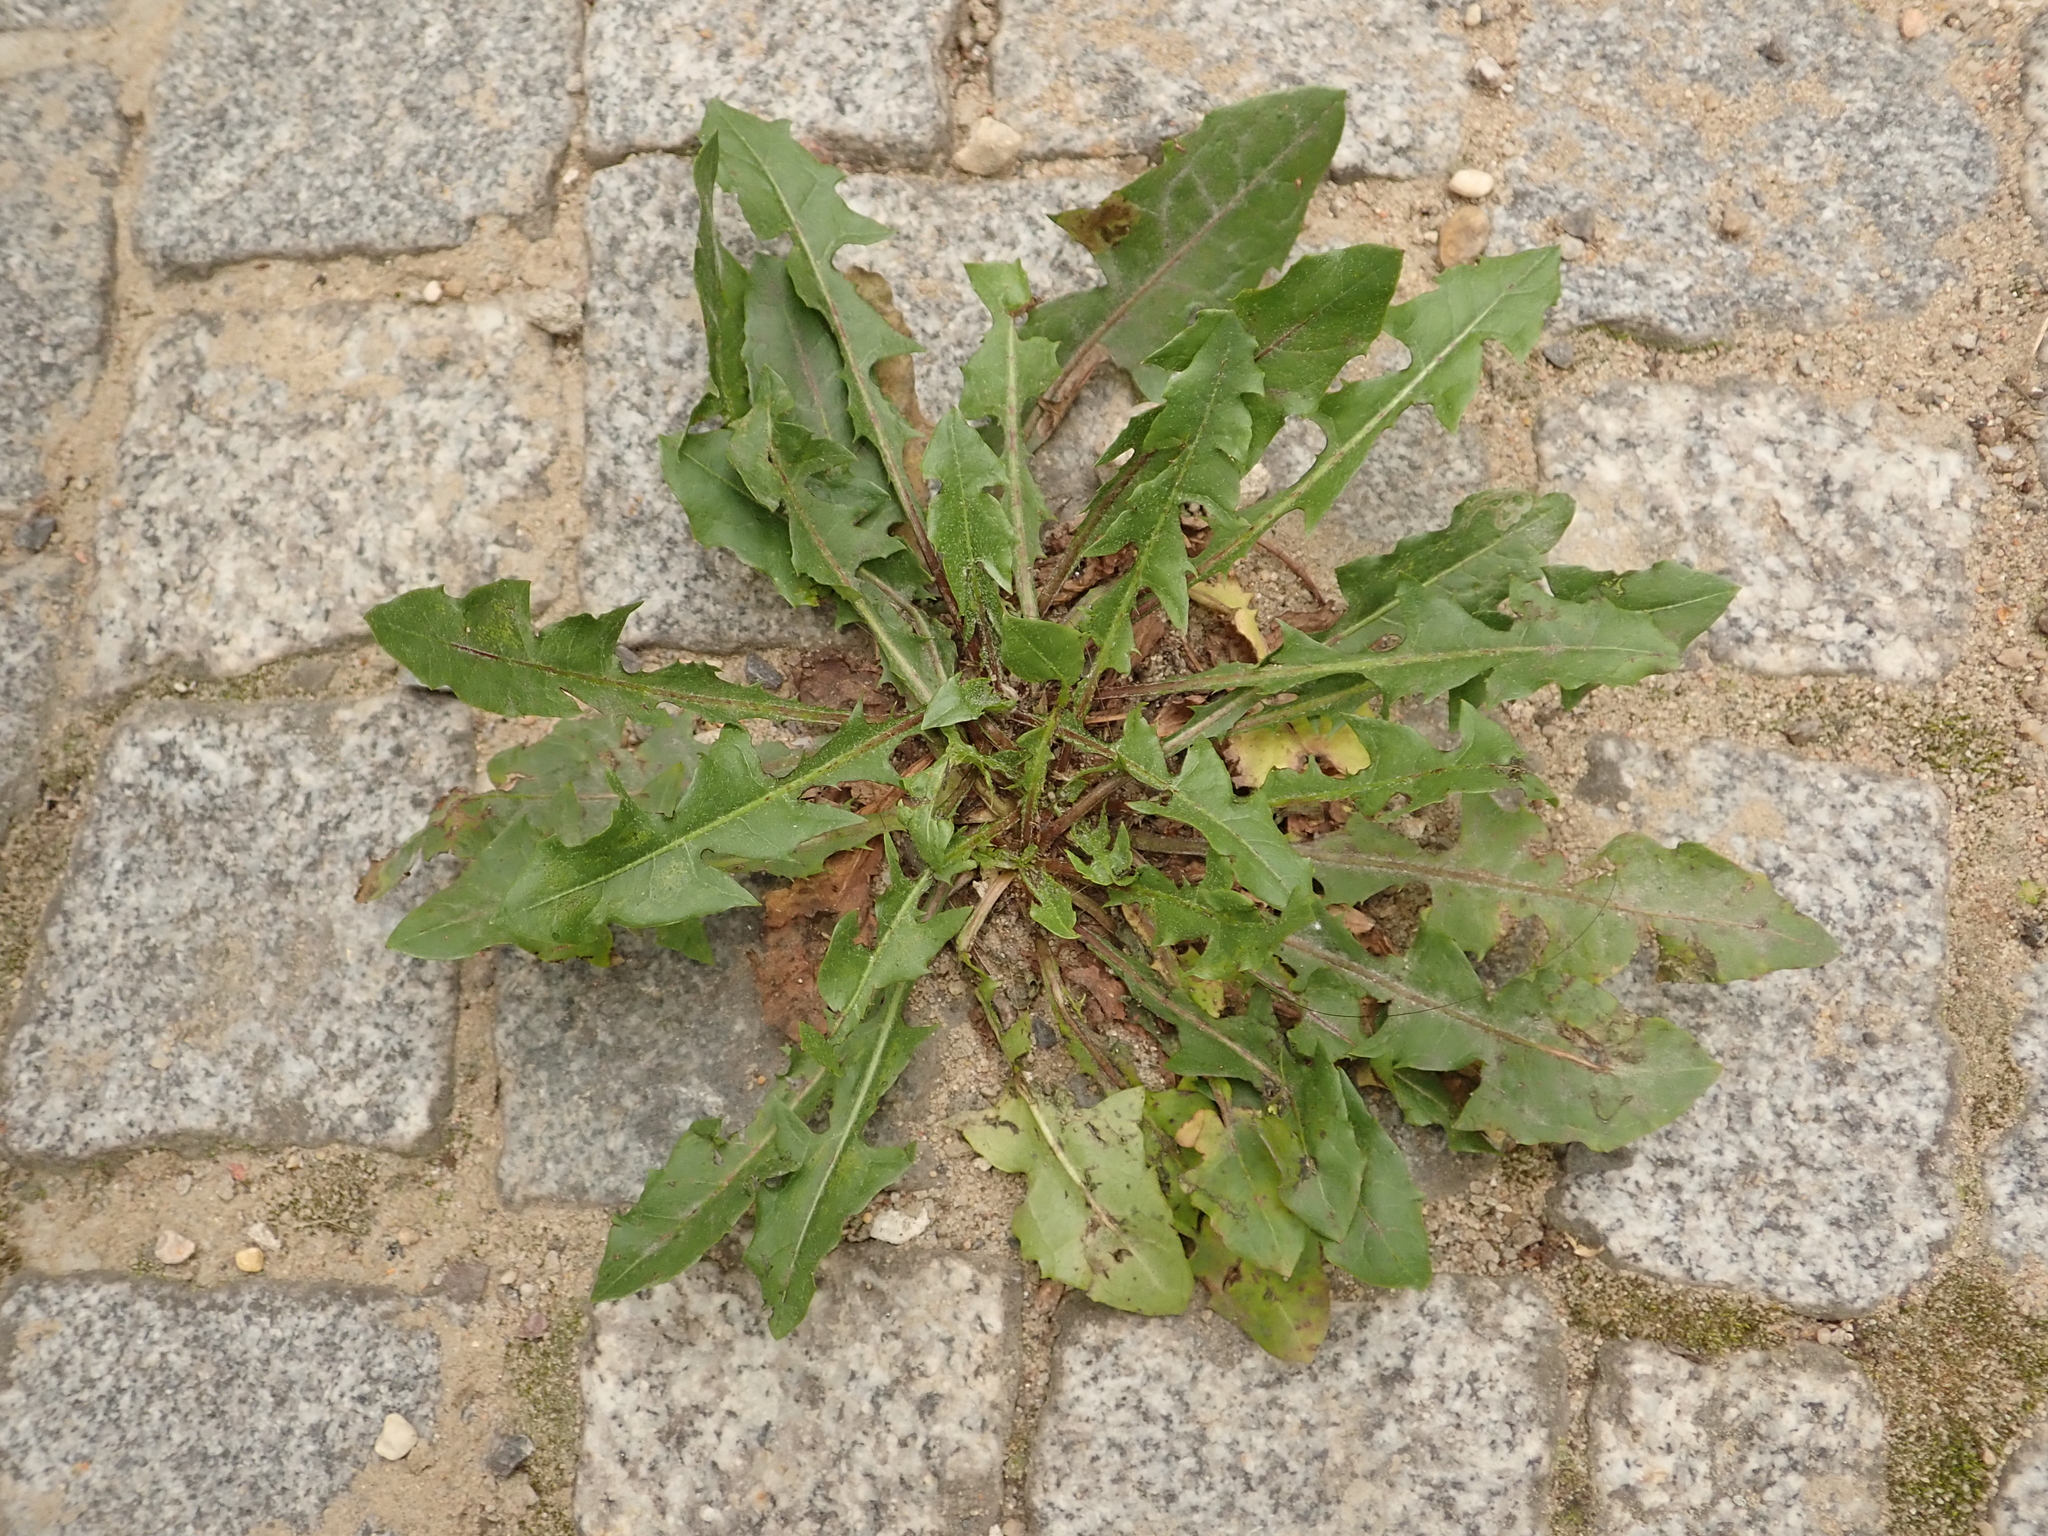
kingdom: Plantae
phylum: Tracheophyta
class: Magnoliopsida
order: Asterales
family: Asteraceae
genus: Taraxacum
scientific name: Taraxacum officinale
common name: Common dandelion
